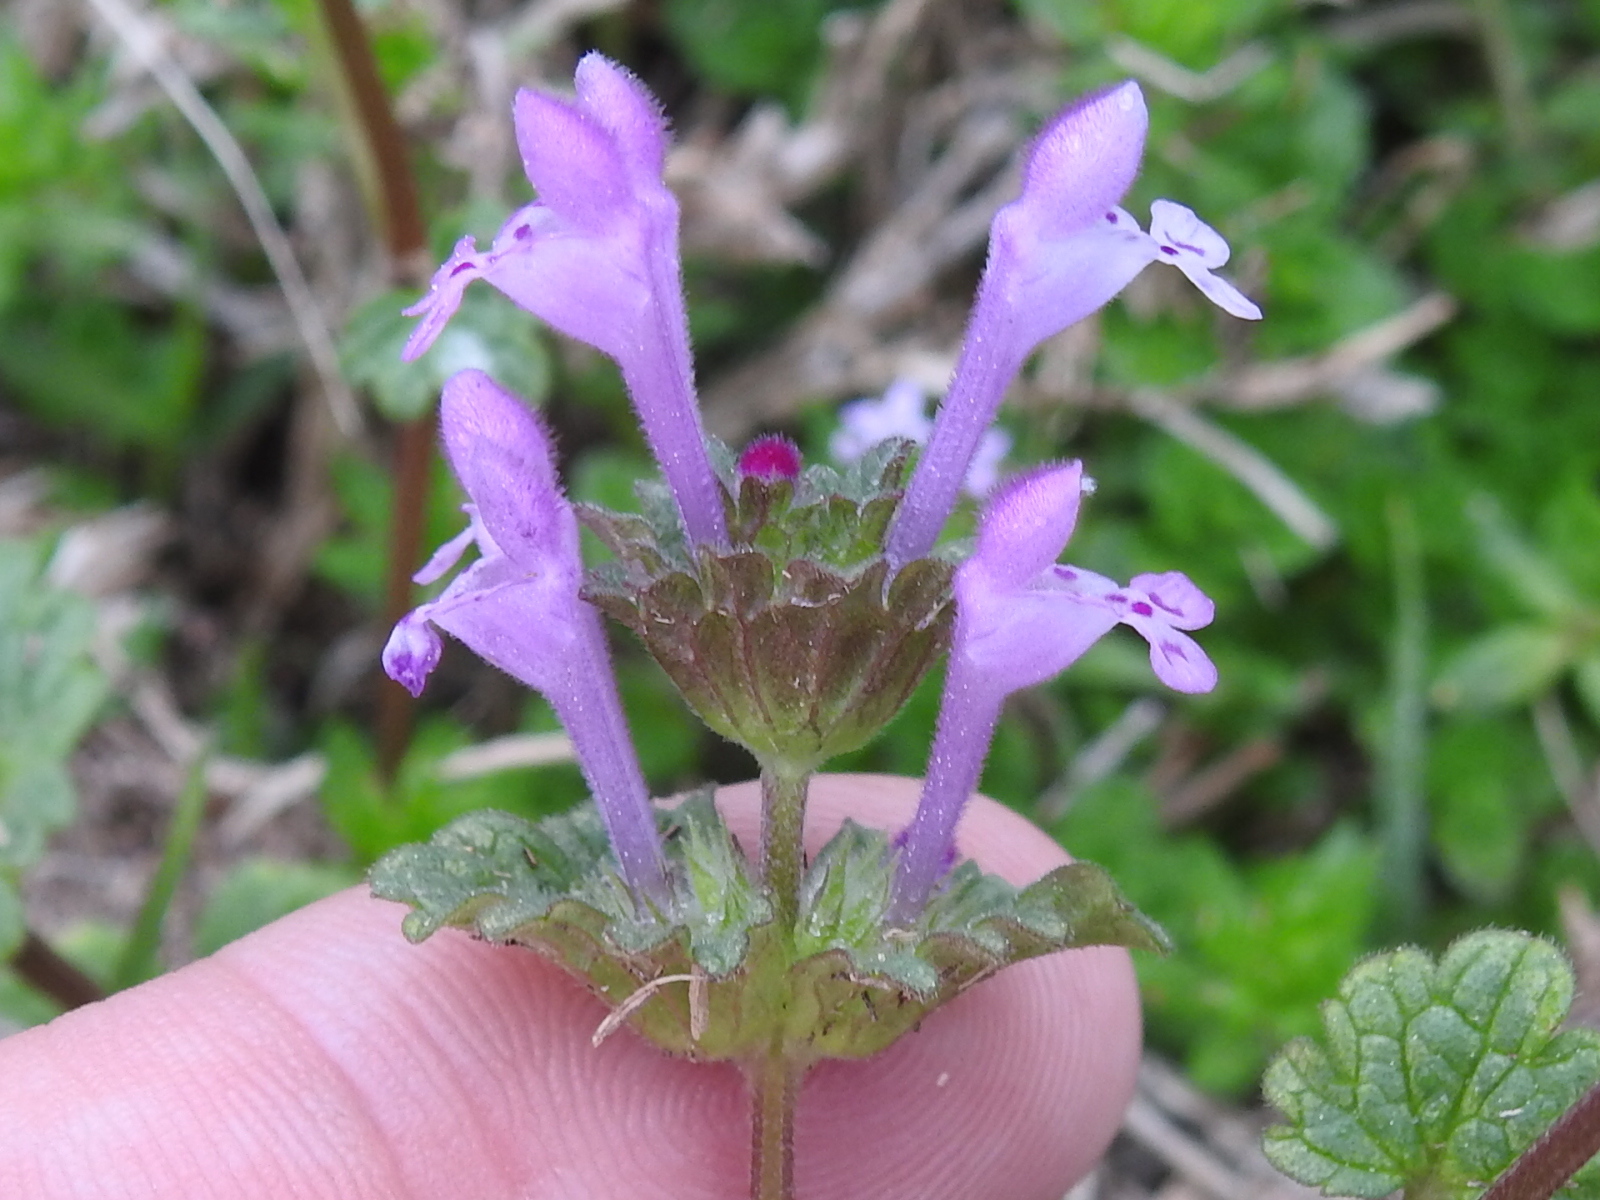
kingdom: Plantae
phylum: Tracheophyta
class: Magnoliopsida
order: Lamiales
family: Lamiaceae
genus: Lamium
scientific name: Lamium amplexicaule
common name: Henbit dead-nettle
